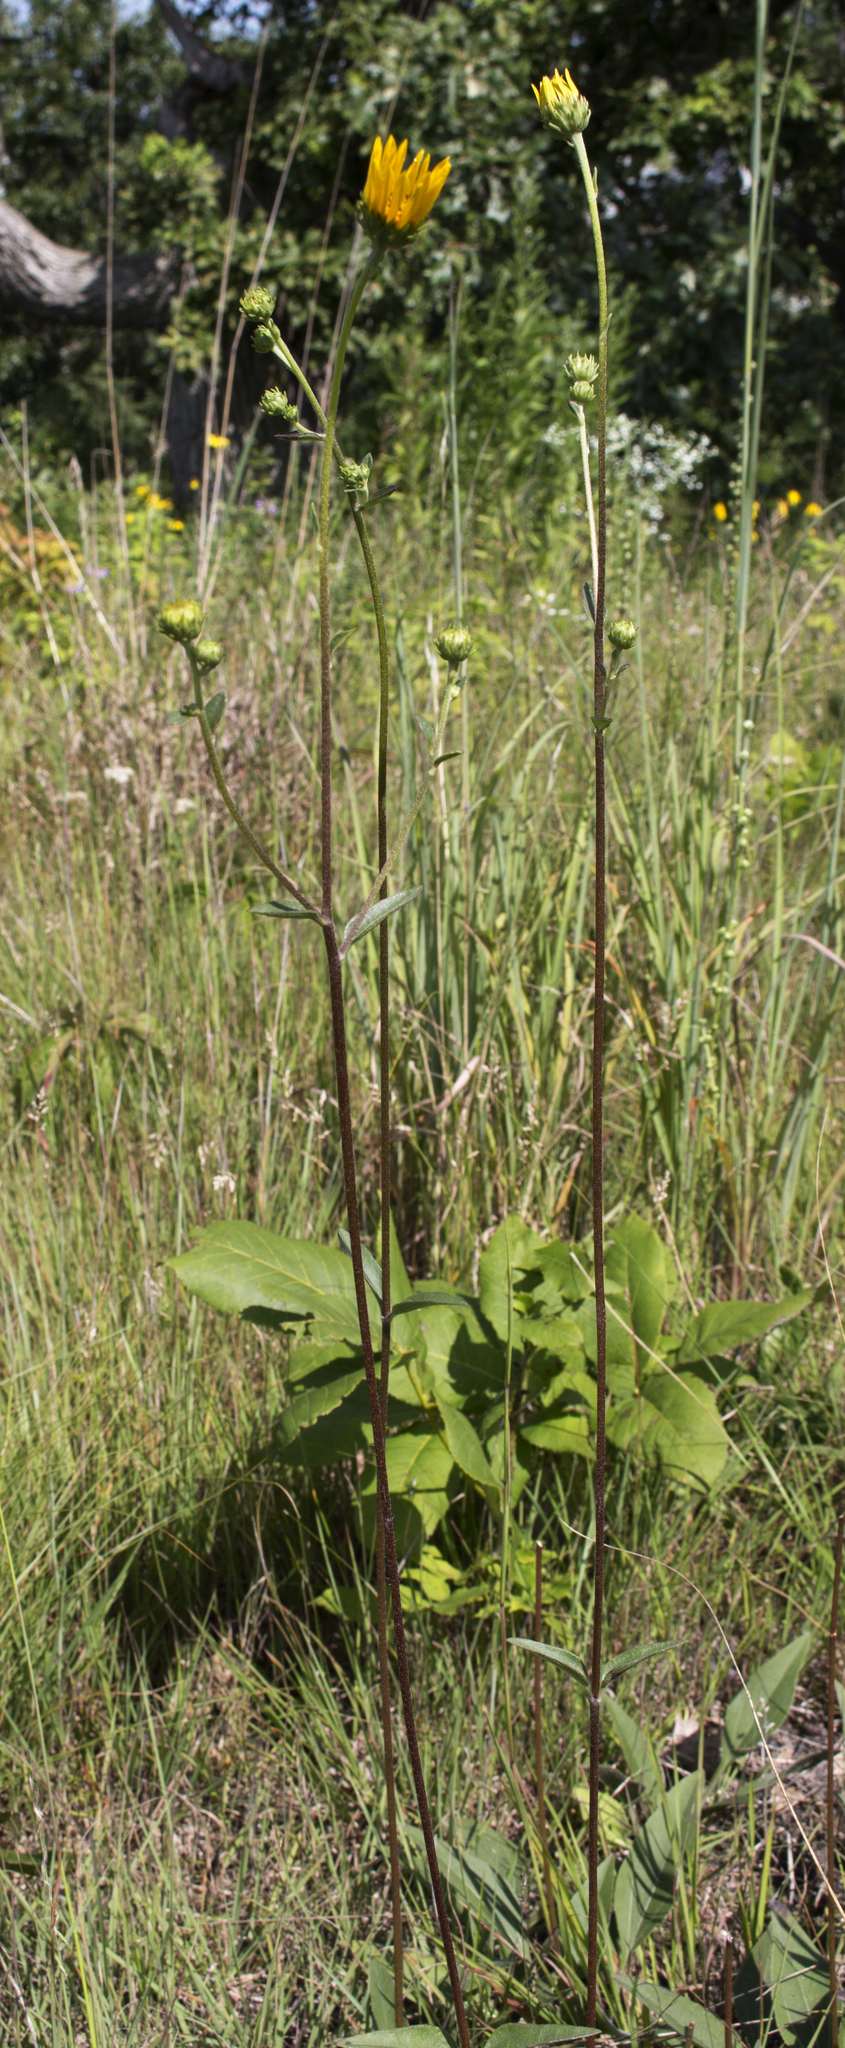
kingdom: Plantae
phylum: Tracheophyta
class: Magnoliopsida
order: Asterales
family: Asteraceae
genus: Helianthus
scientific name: Helianthus occidentalis
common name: Western sunflower
